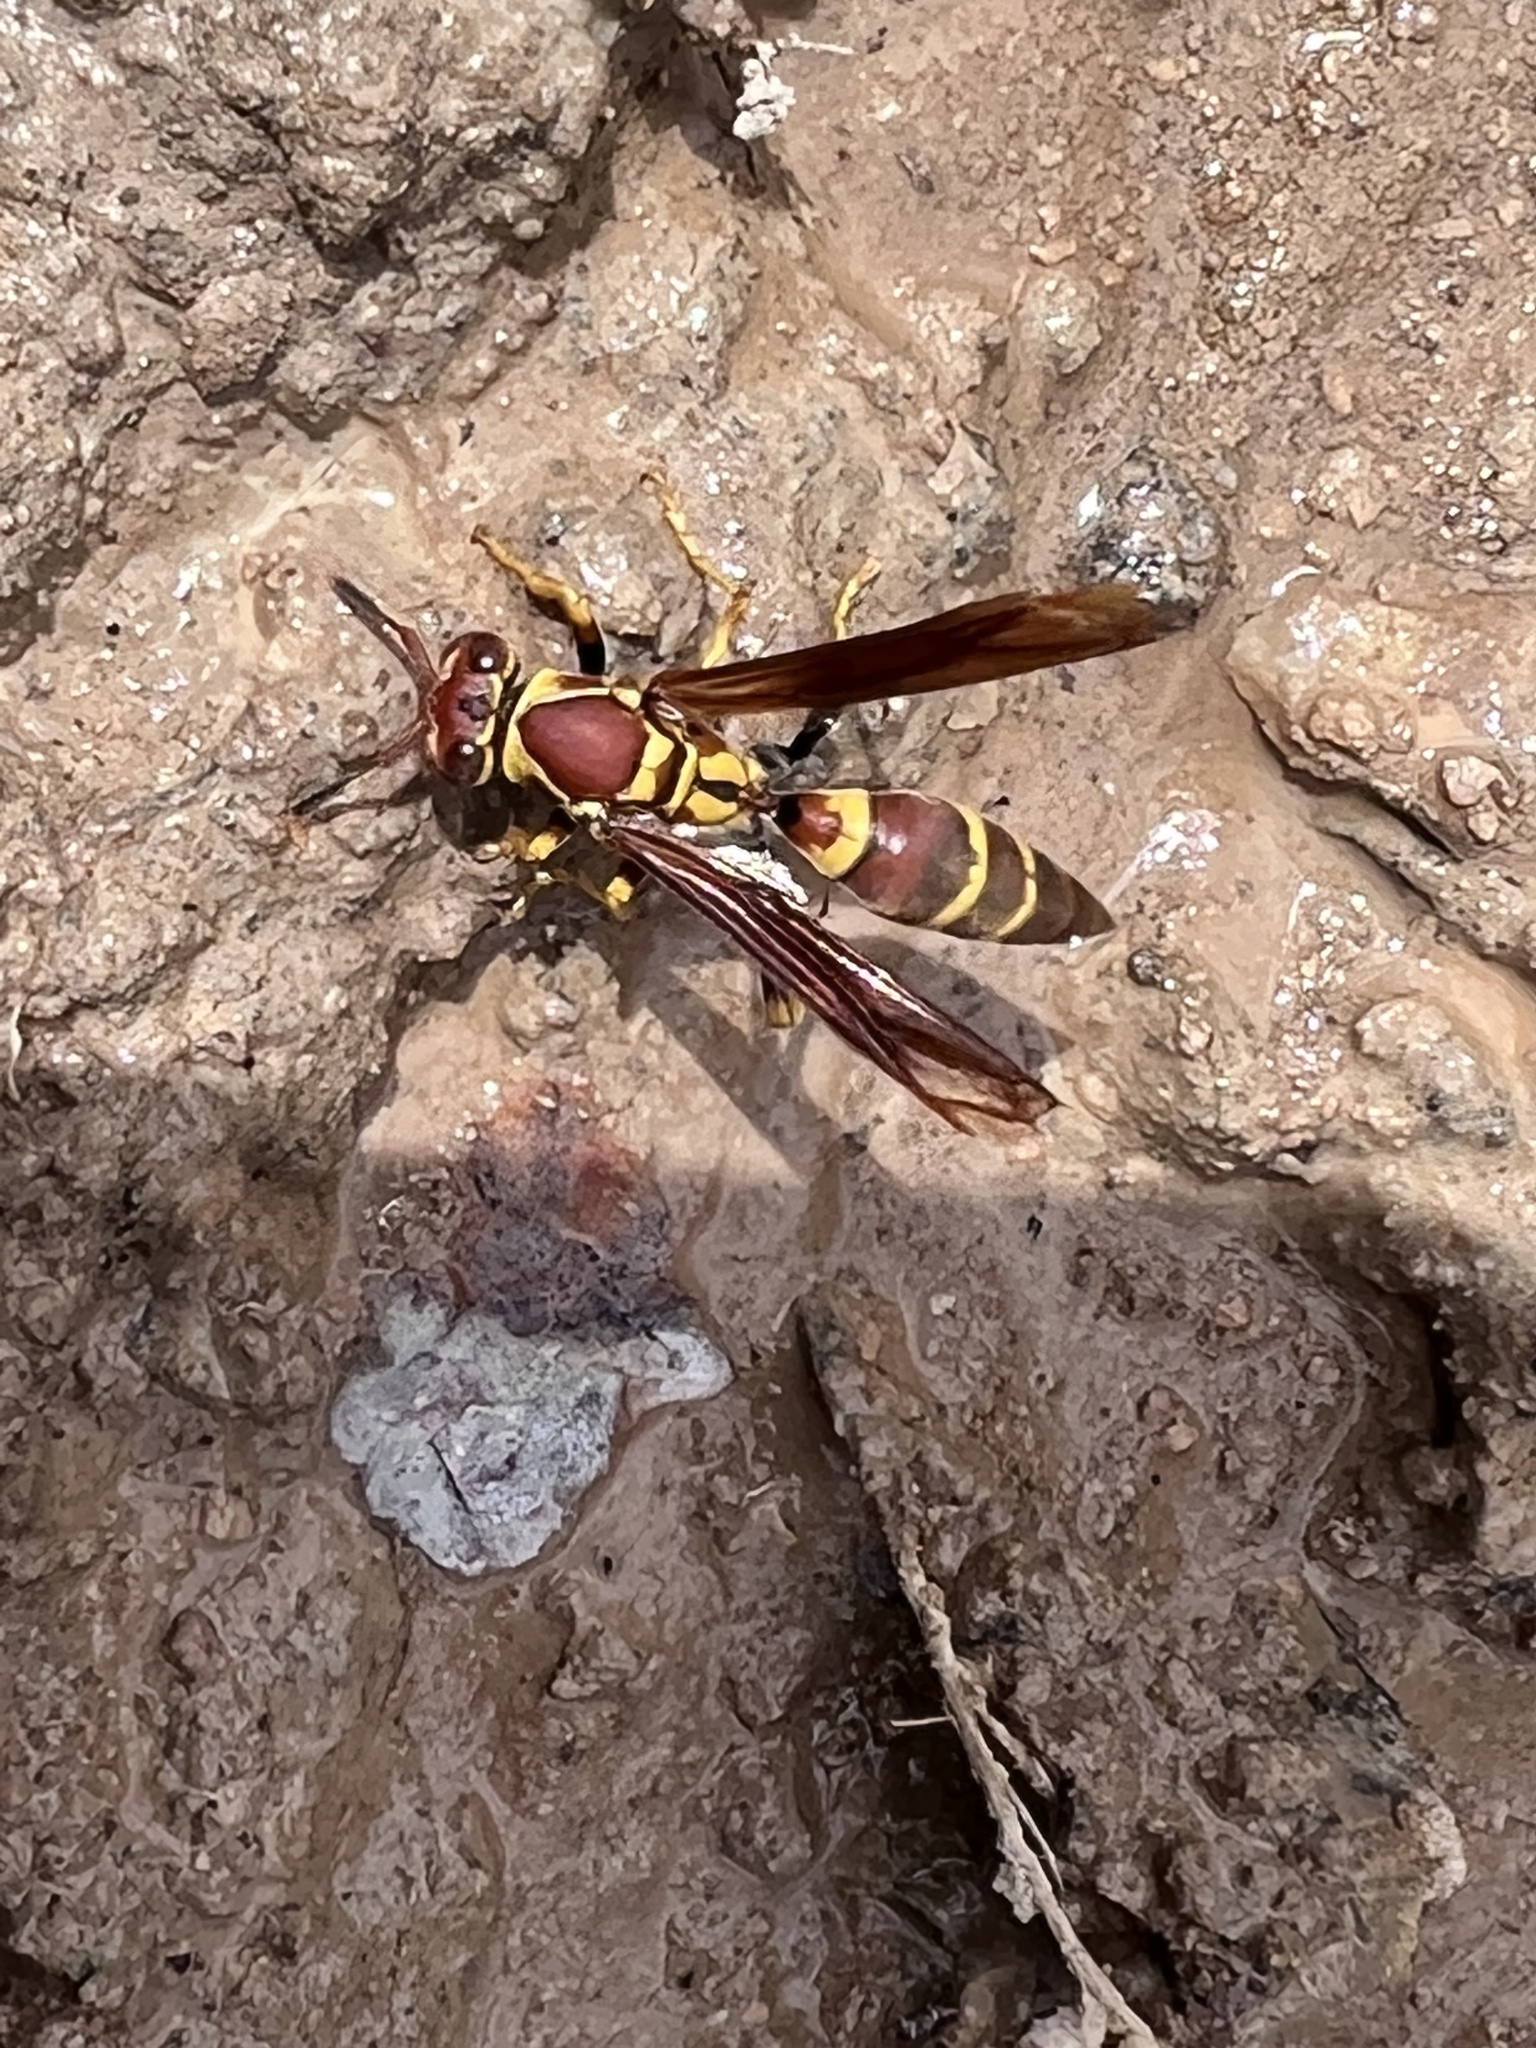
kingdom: Animalia
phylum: Arthropoda
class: Insecta
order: Hymenoptera
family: Eumenidae
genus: Polistes
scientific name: Polistes instabilis
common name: Unstable paper wasp
